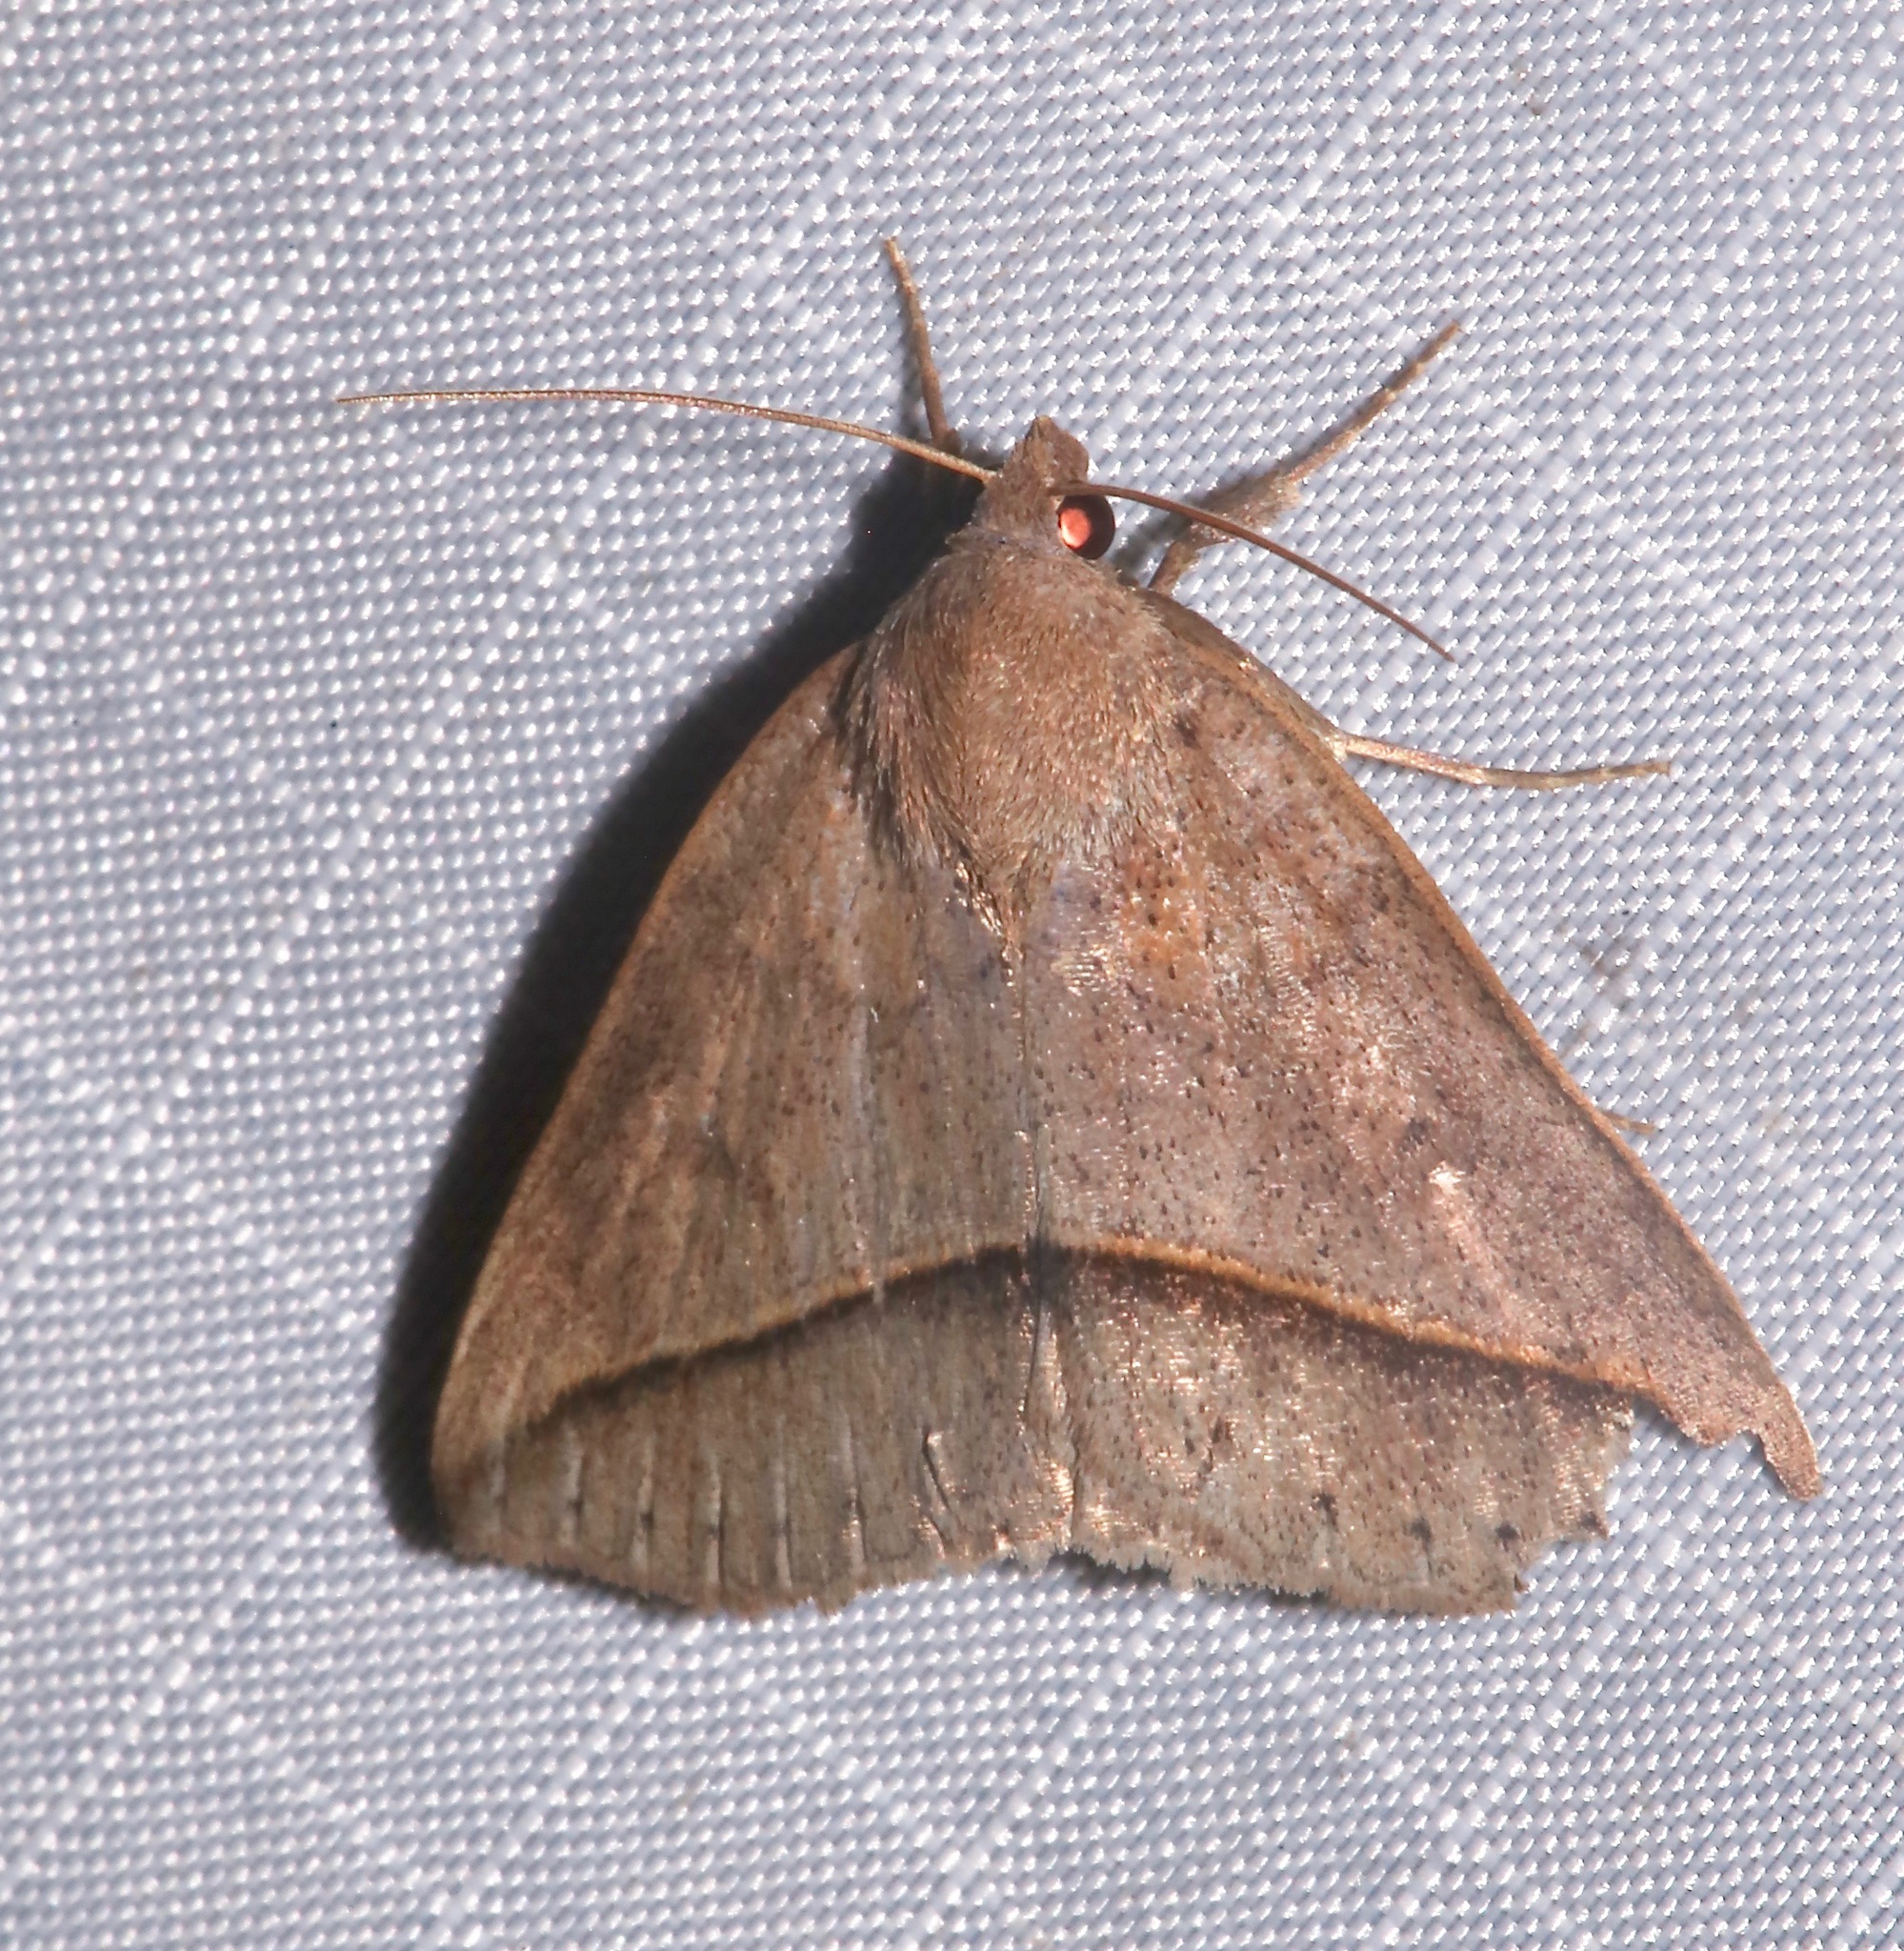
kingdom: Animalia
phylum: Arthropoda
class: Insecta
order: Lepidoptera
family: Erebidae
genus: Argyrostrotis
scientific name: Argyrostrotis flavistriaria
